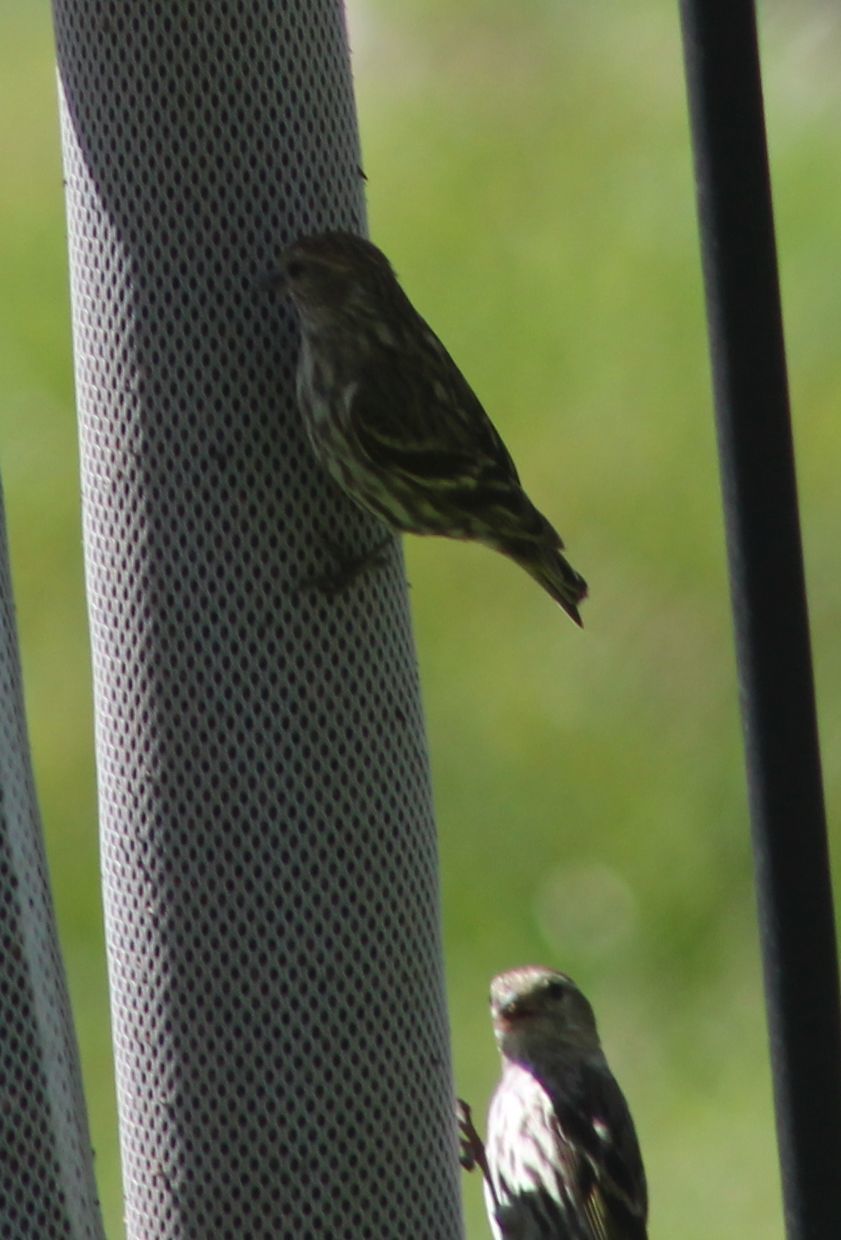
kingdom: Animalia
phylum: Chordata
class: Aves
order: Passeriformes
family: Fringillidae
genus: Spinus
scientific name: Spinus pinus
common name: Pine siskin
